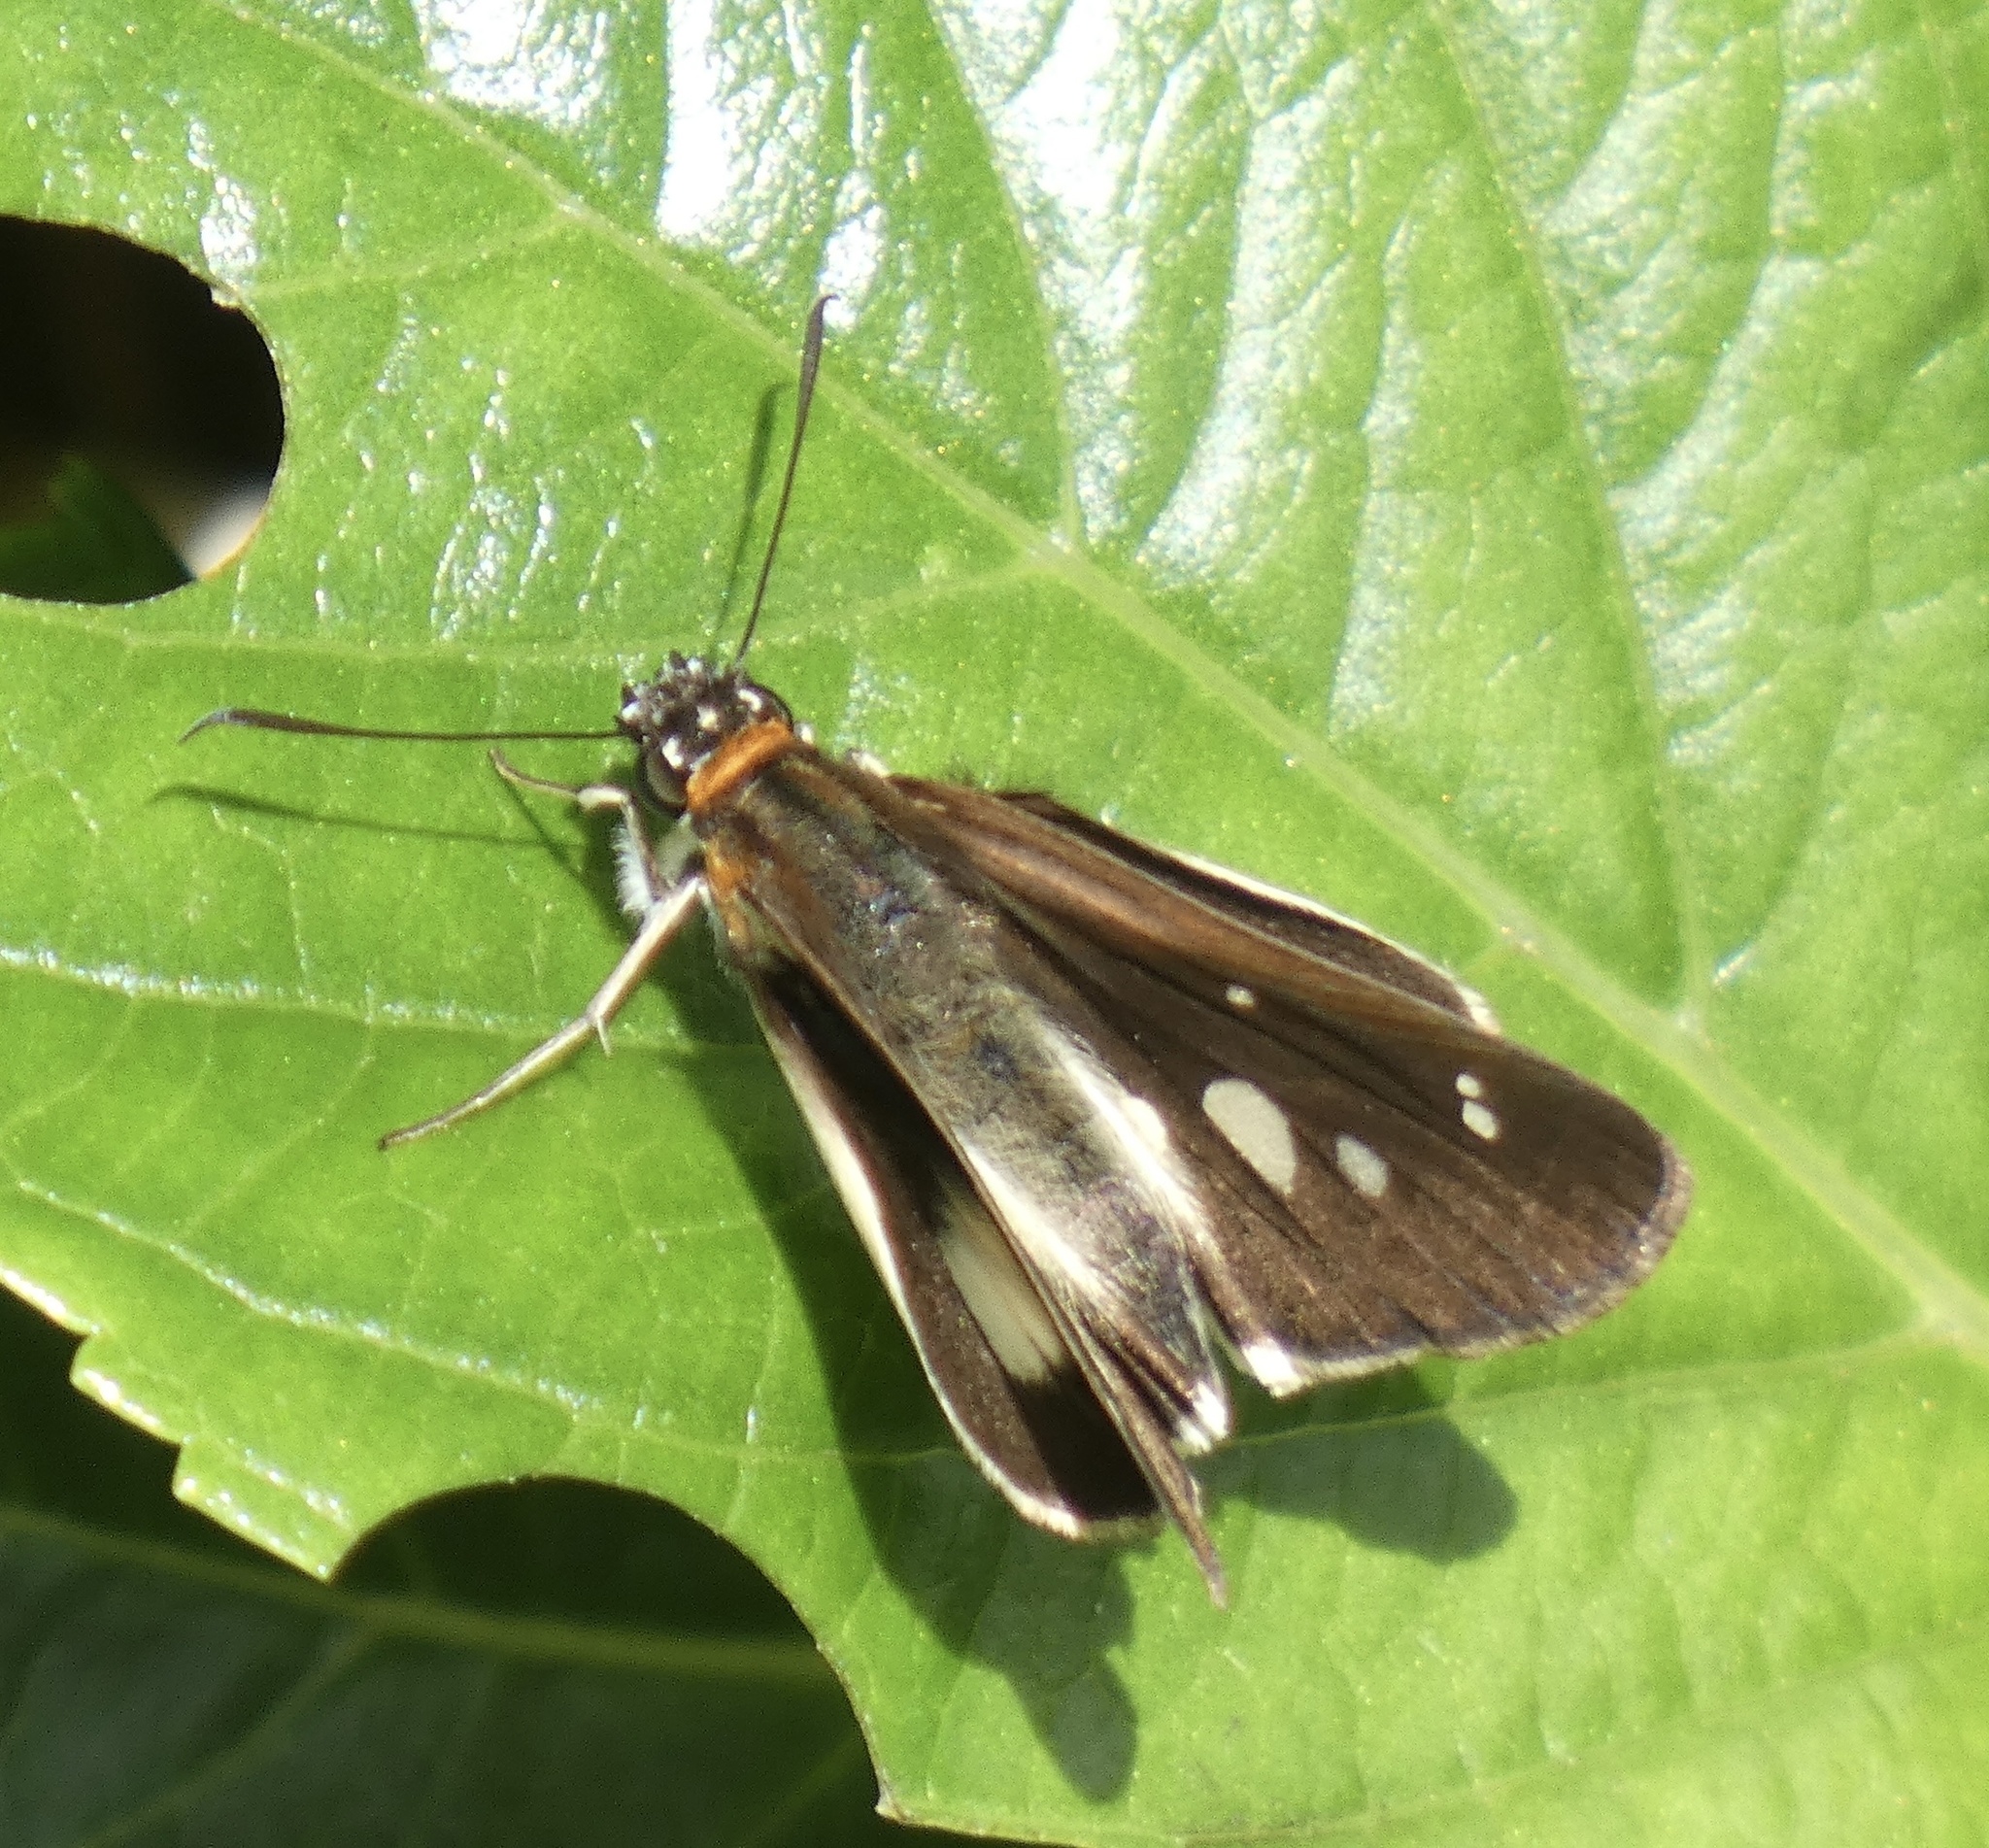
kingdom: Animalia
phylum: Arthropoda
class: Insecta
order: Lepidoptera
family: Hesperiidae
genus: Vettius
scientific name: Vettius marcus
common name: Marcus skipper
